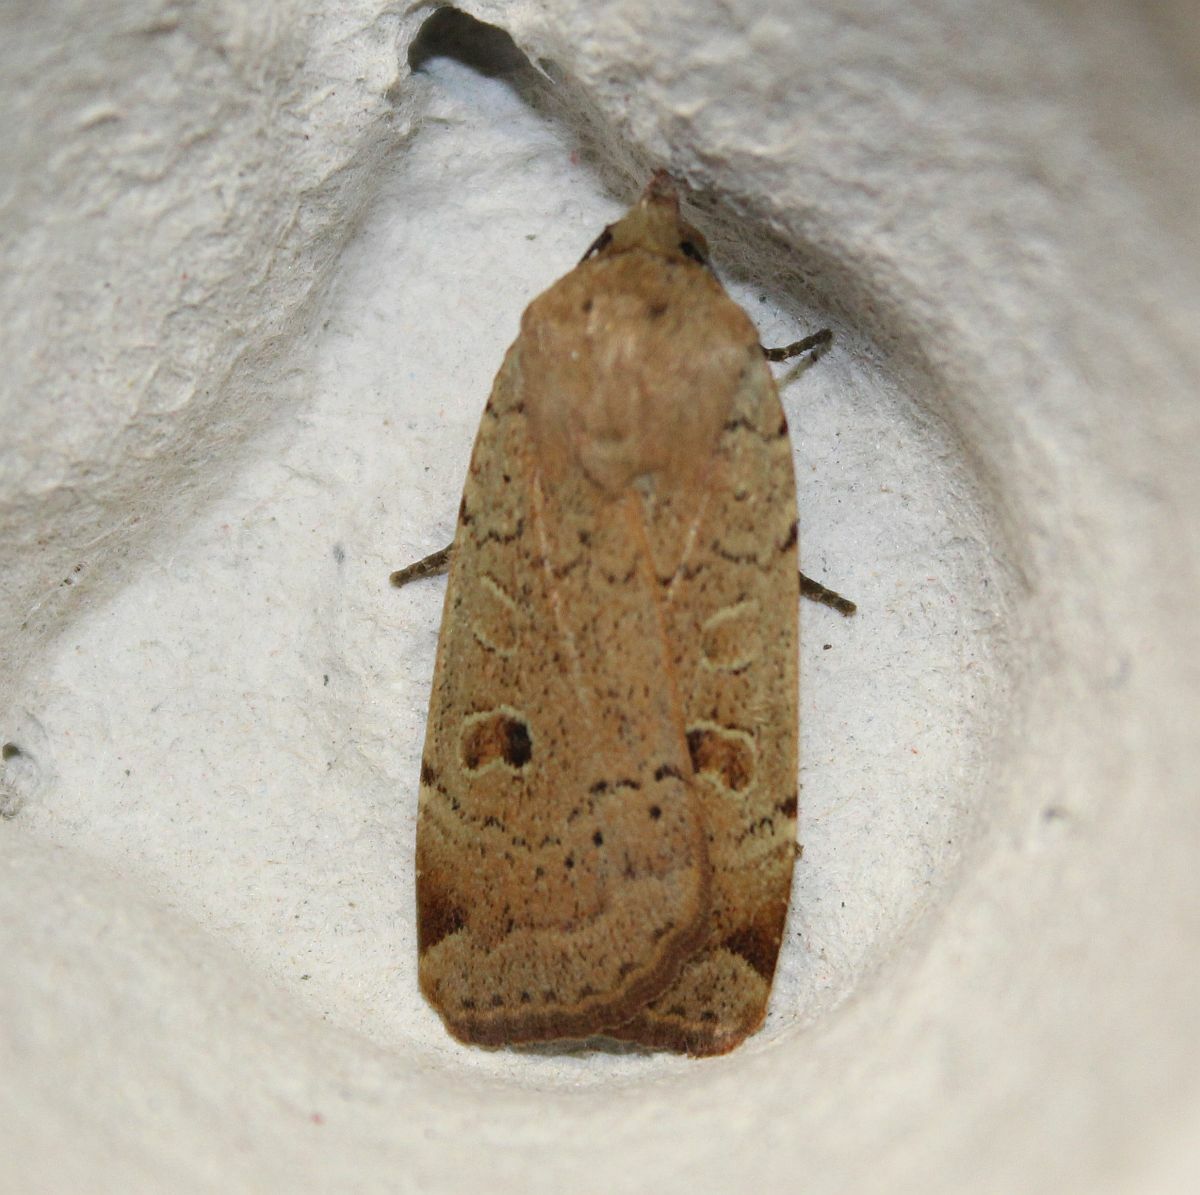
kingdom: Animalia
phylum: Arthropoda
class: Insecta
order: Lepidoptera
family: Noctuidae
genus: Noctua
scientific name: Noctua comes
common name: Lesser yellow underwing
